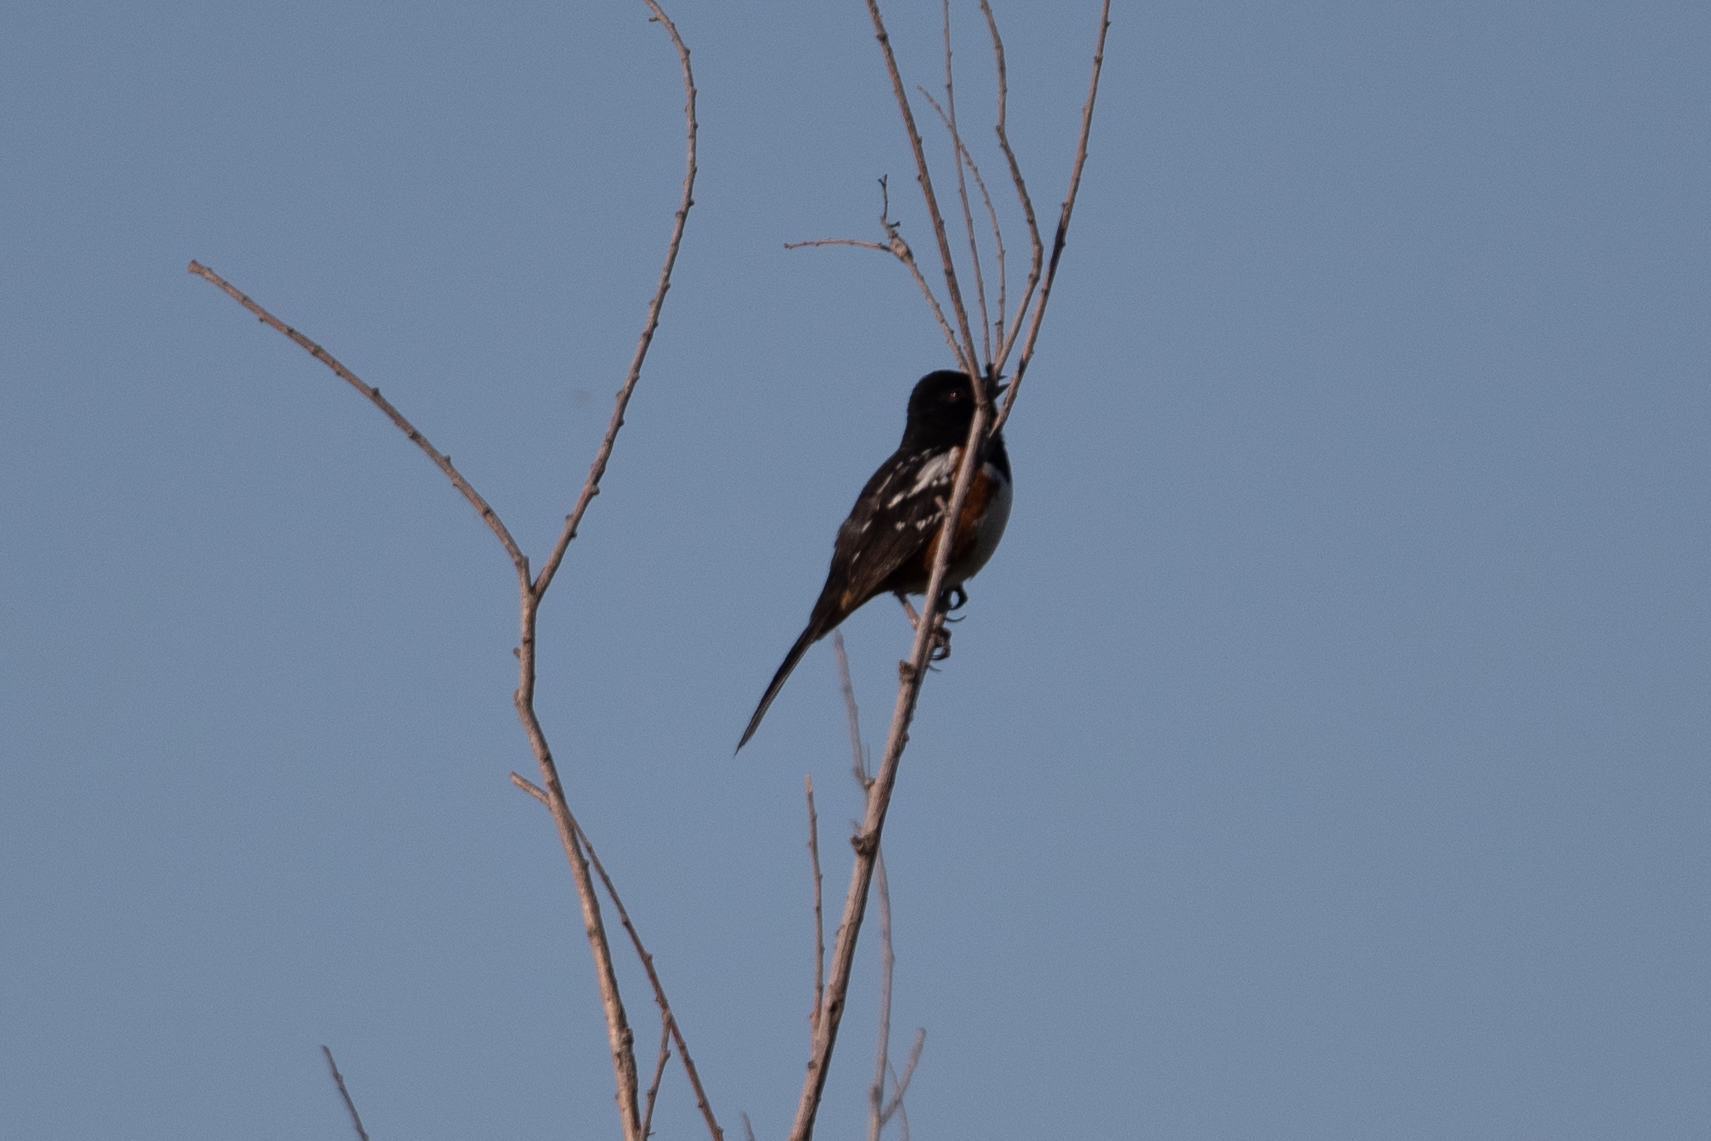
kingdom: Animalia
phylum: Chordata
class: Aves
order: Passeriformes
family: Passerellidae
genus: Pipilo
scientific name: Pipilo maculatus
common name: Spotted towhee
